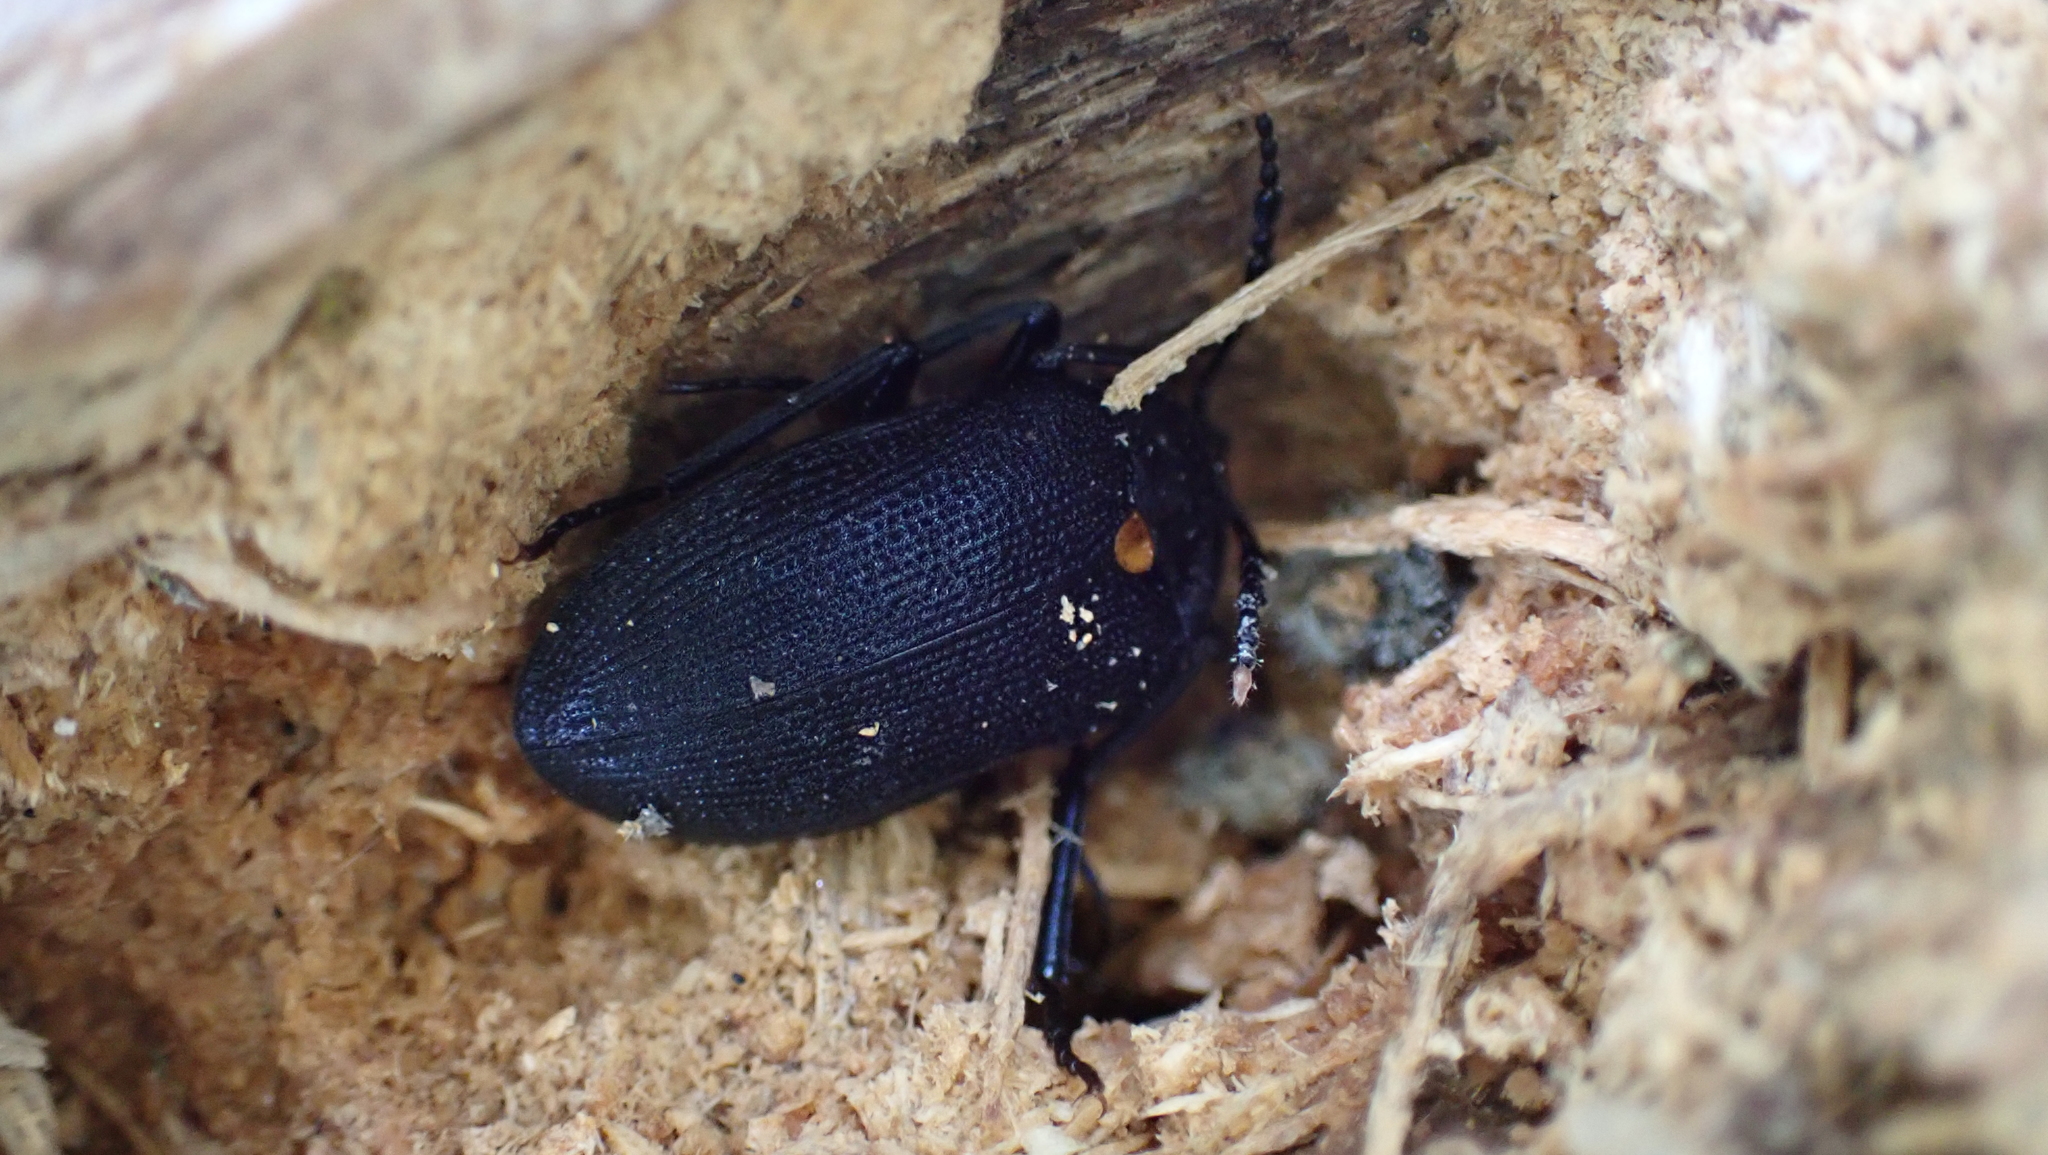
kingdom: Animalia
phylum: Arthropoda
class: Insecta
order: Coleoptera
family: Tetratomidae
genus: Penthe
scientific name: Penthe obliquata
